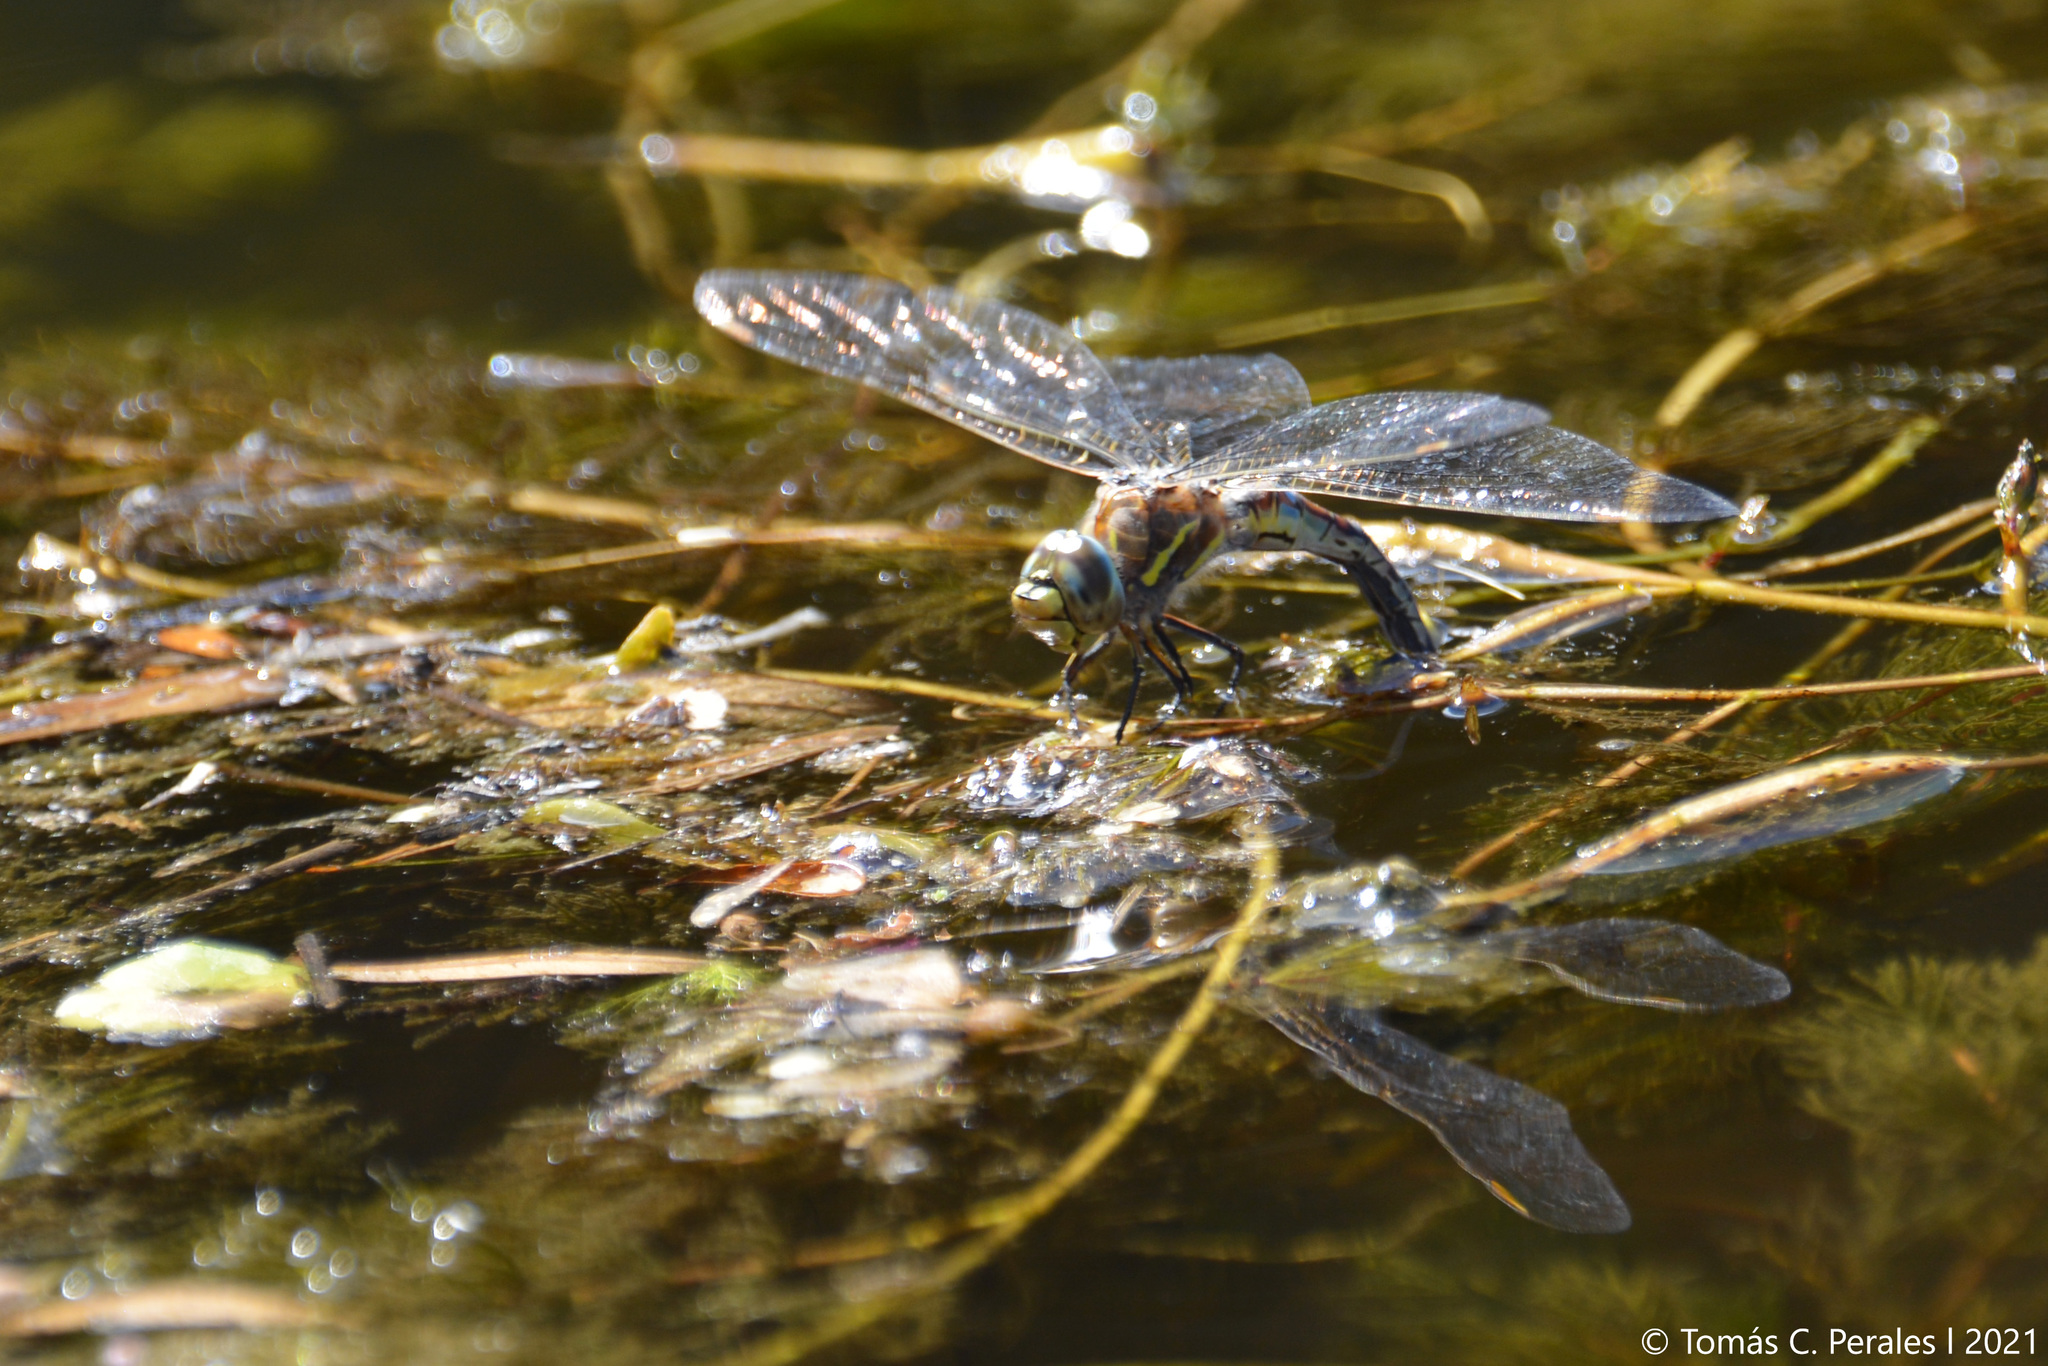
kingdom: Animalia
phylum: Arthropoda
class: Insecta
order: Odonata
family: Aeshnidae
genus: Rhionaeschna
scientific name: Rhionaeschna absoluta
